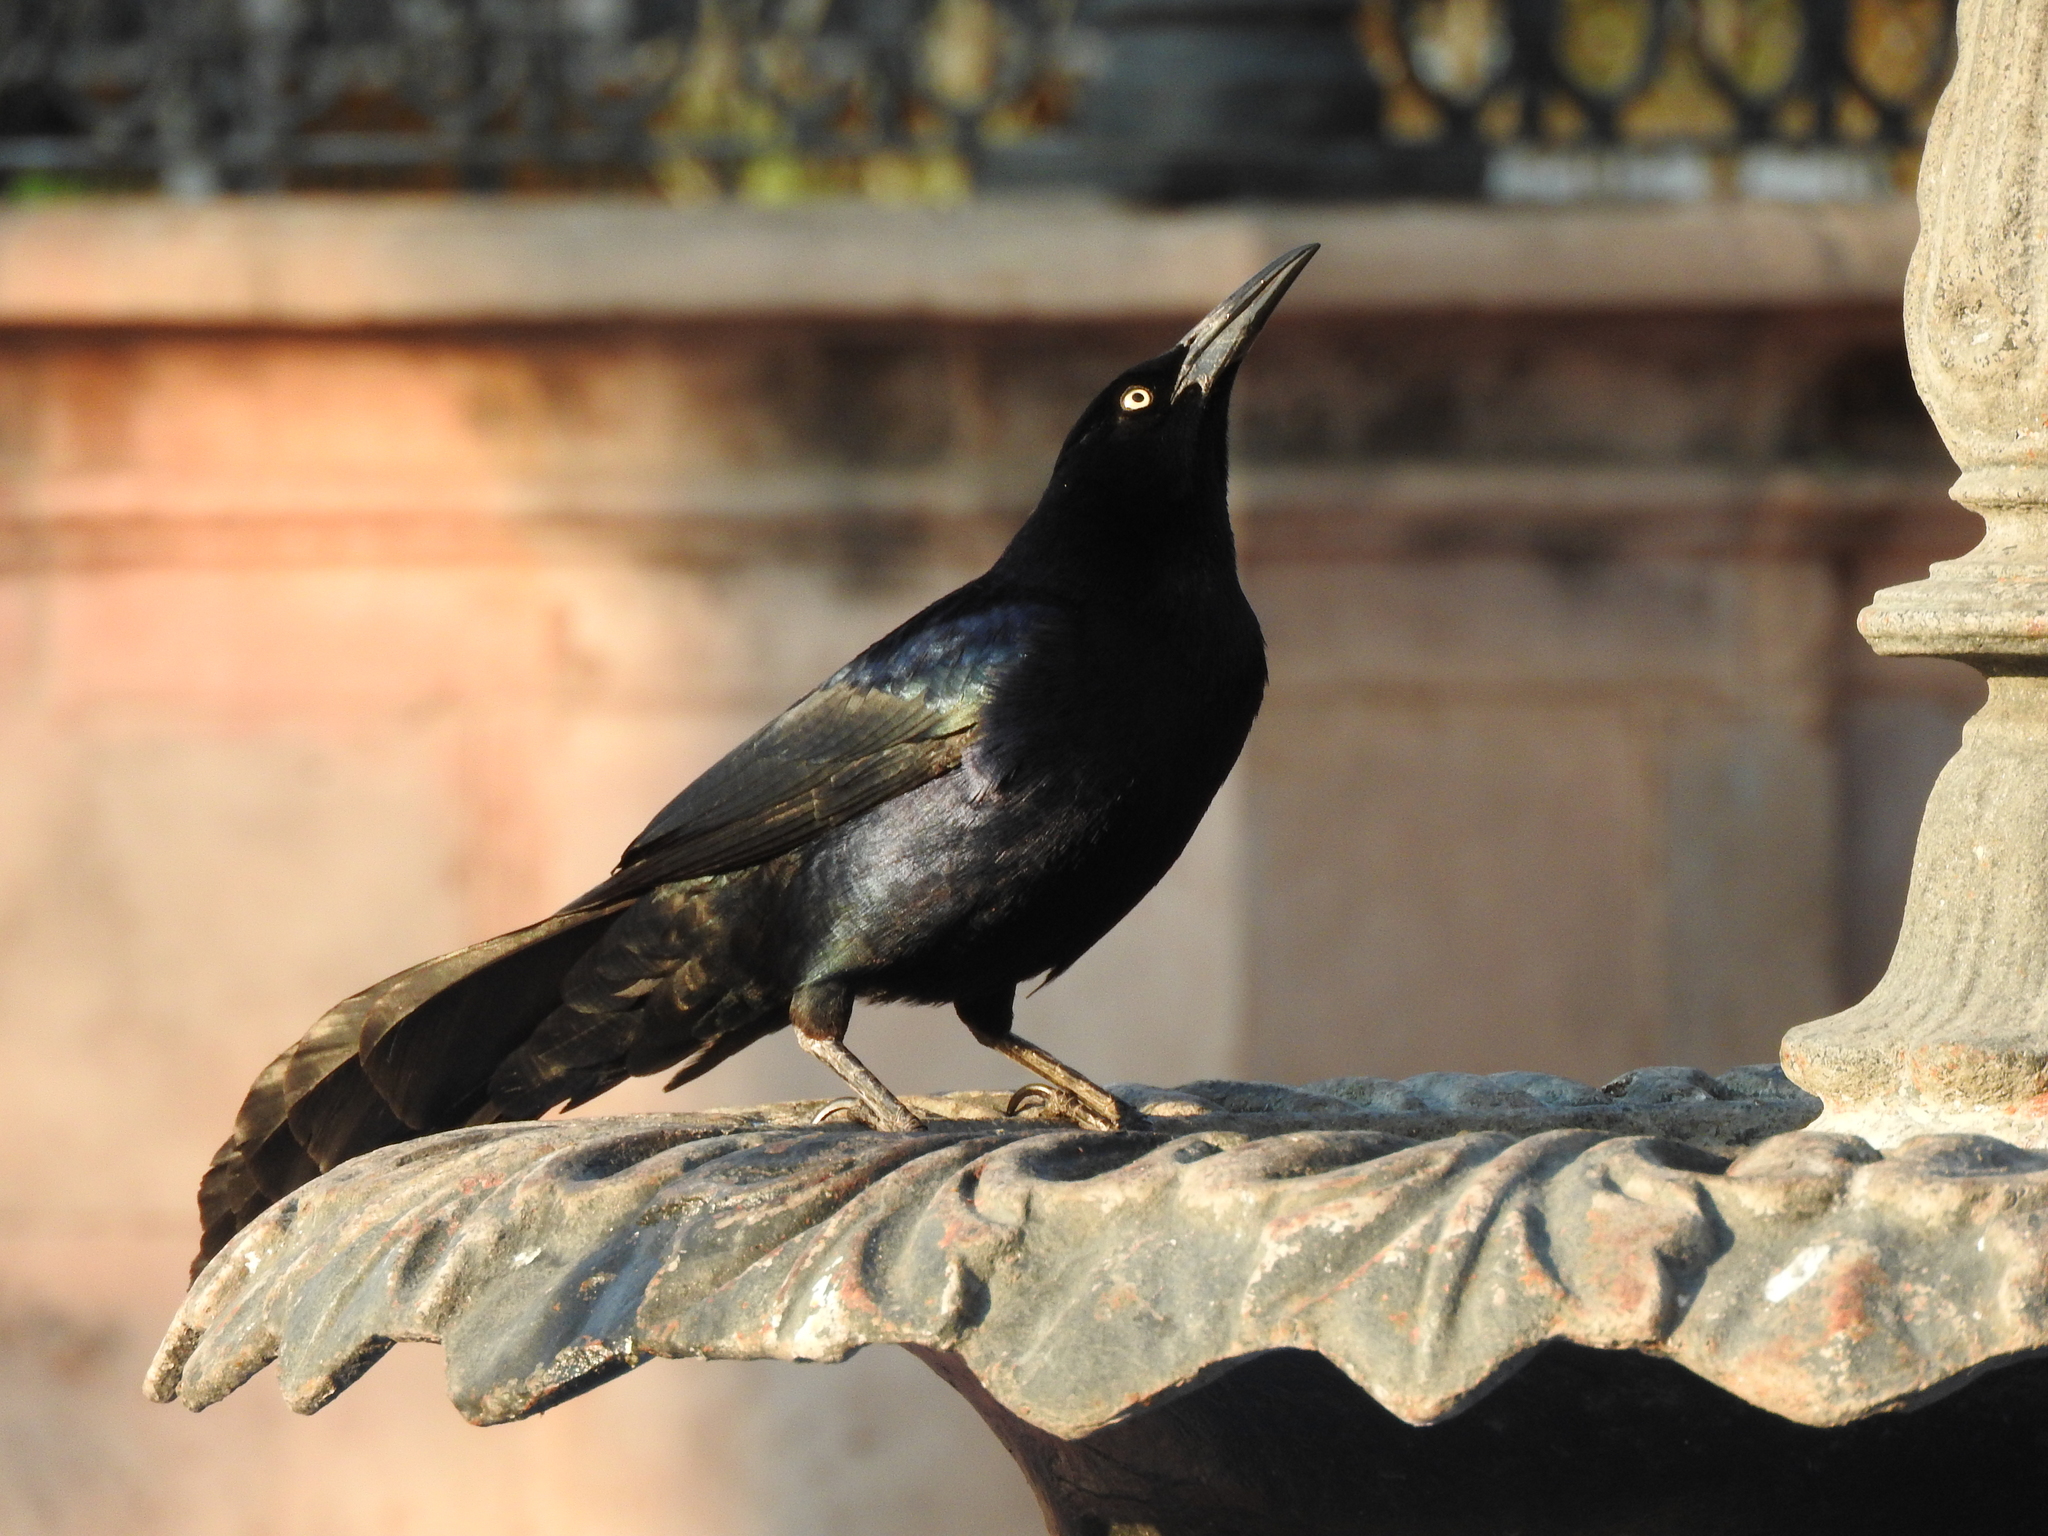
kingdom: Animalia
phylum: Chordata
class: Aves
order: Passeriformes
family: Icteridae
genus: Quiscalus
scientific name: Quiscalus mexicanus
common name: Great-tailed grackle
